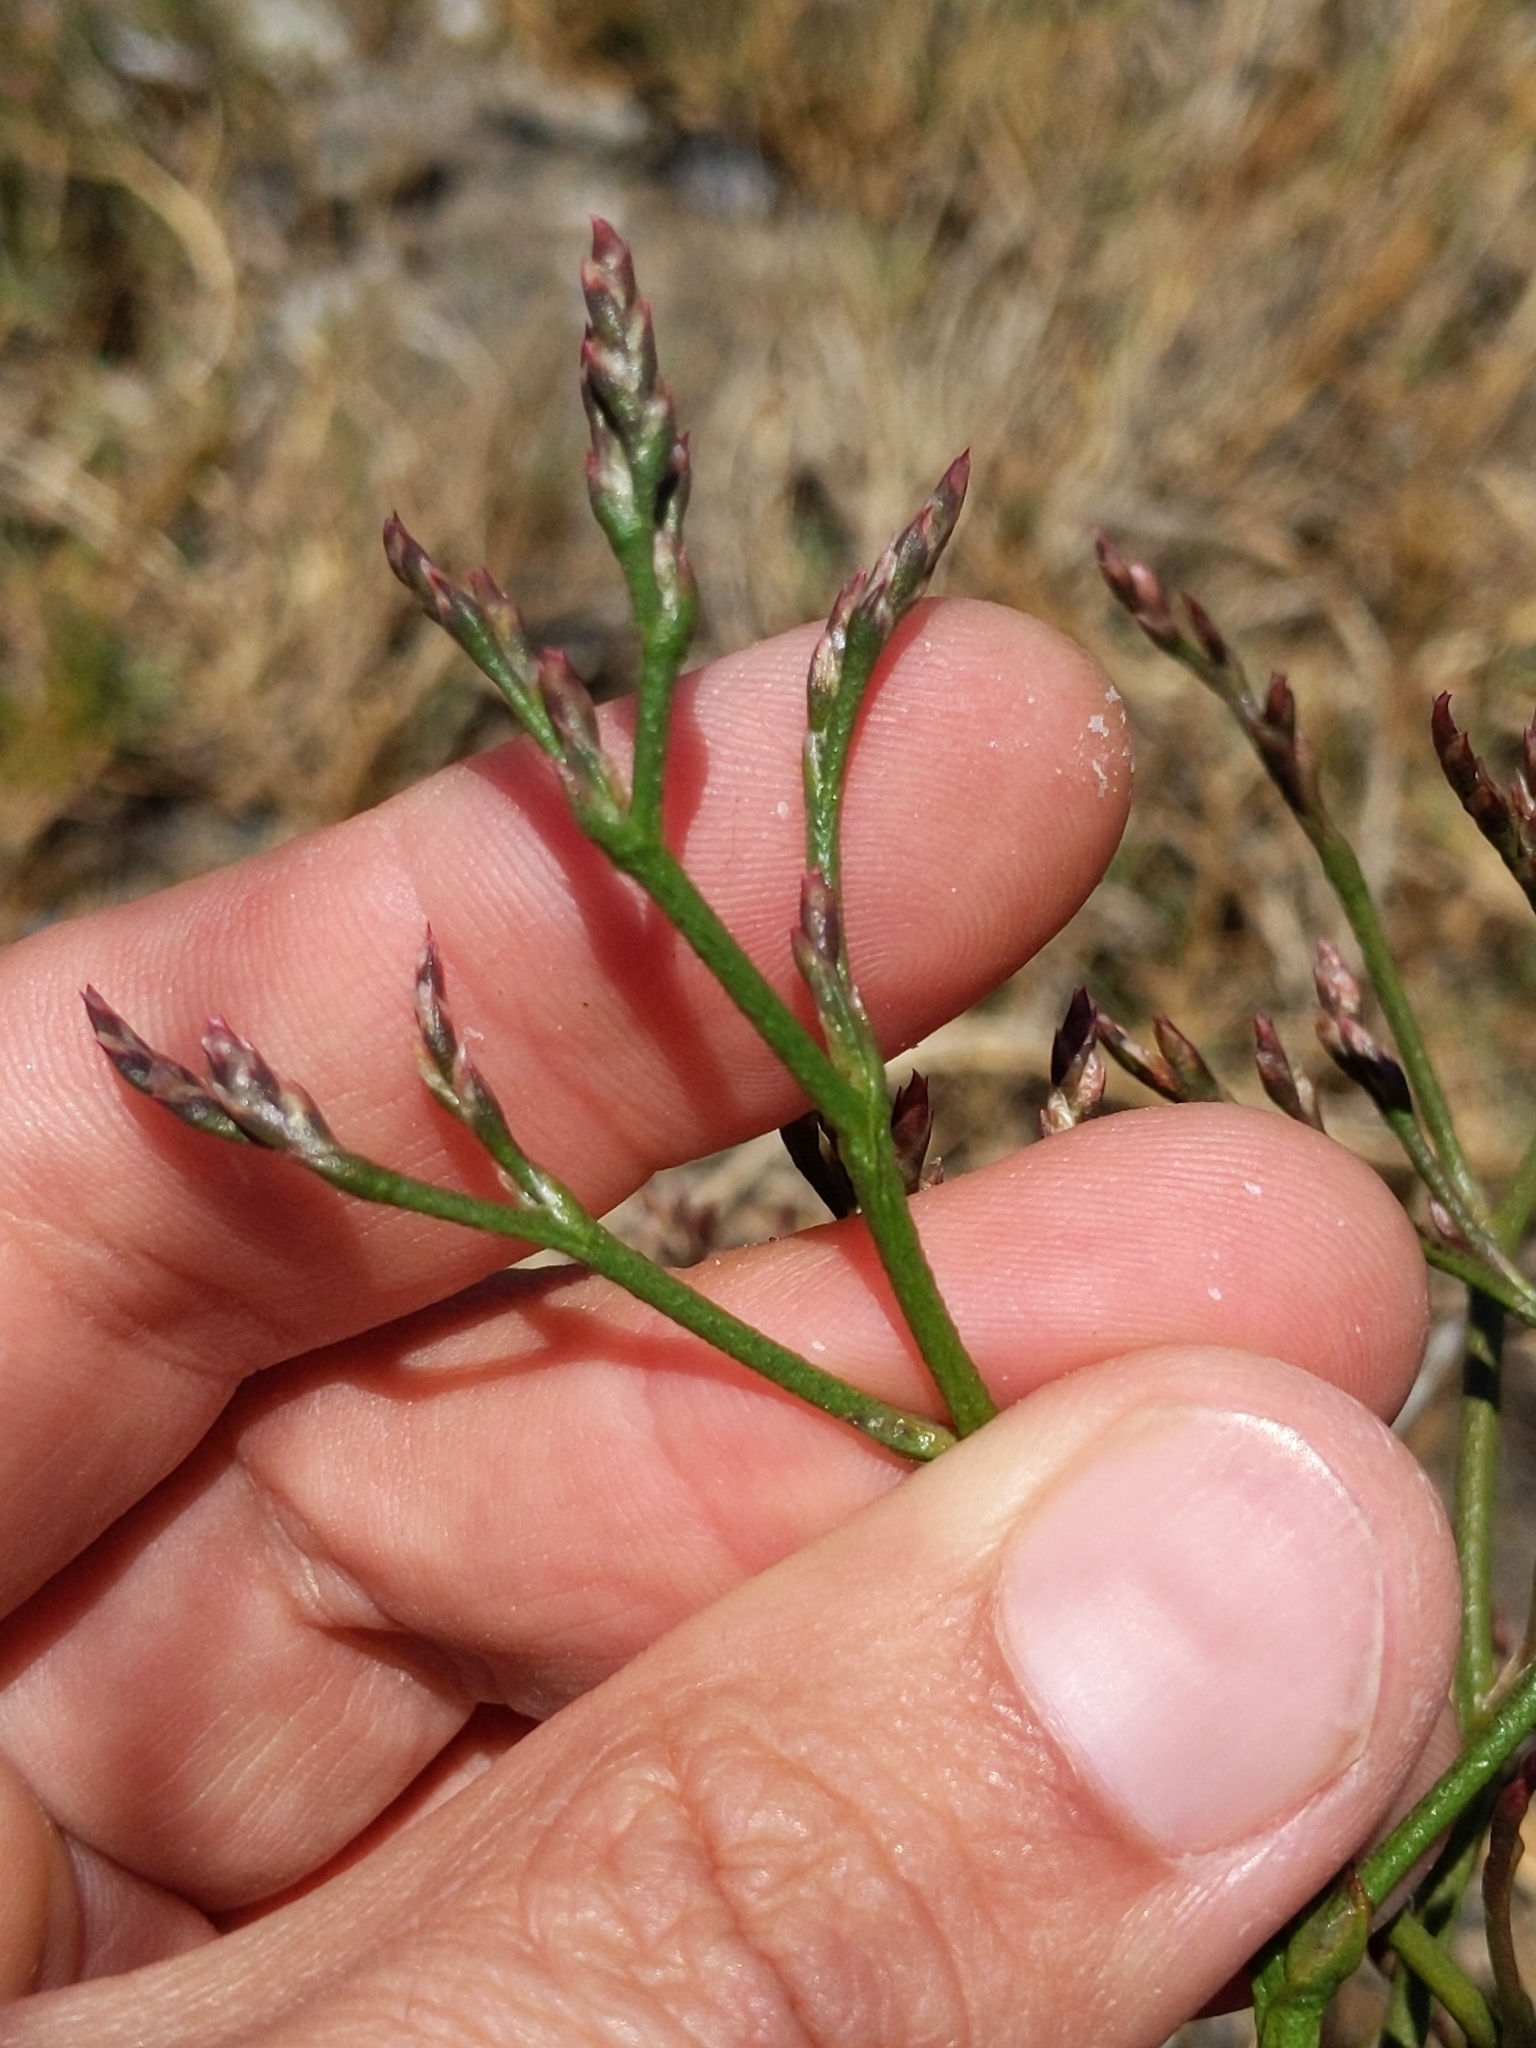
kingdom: Plantae
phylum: Tracheophyta
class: Magnoliopsida
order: Caryophyllales
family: Plumbaginaceae
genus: Limonium
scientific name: Limonium californicum
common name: Marsh-rosemary
